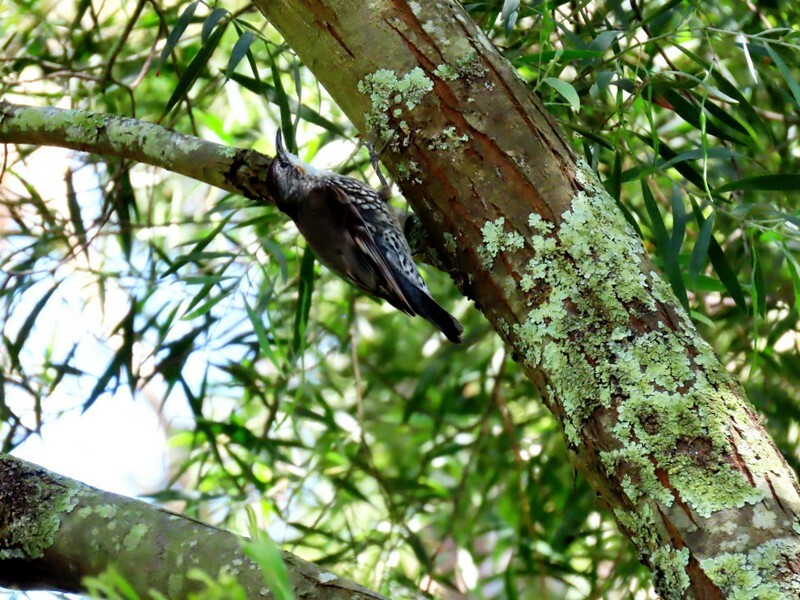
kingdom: Animalia
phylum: Chordata
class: Aves
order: Passeriformes
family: Climacteridae
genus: Cormobates
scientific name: Cormobates leucophaea
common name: White-throated treecreeper
